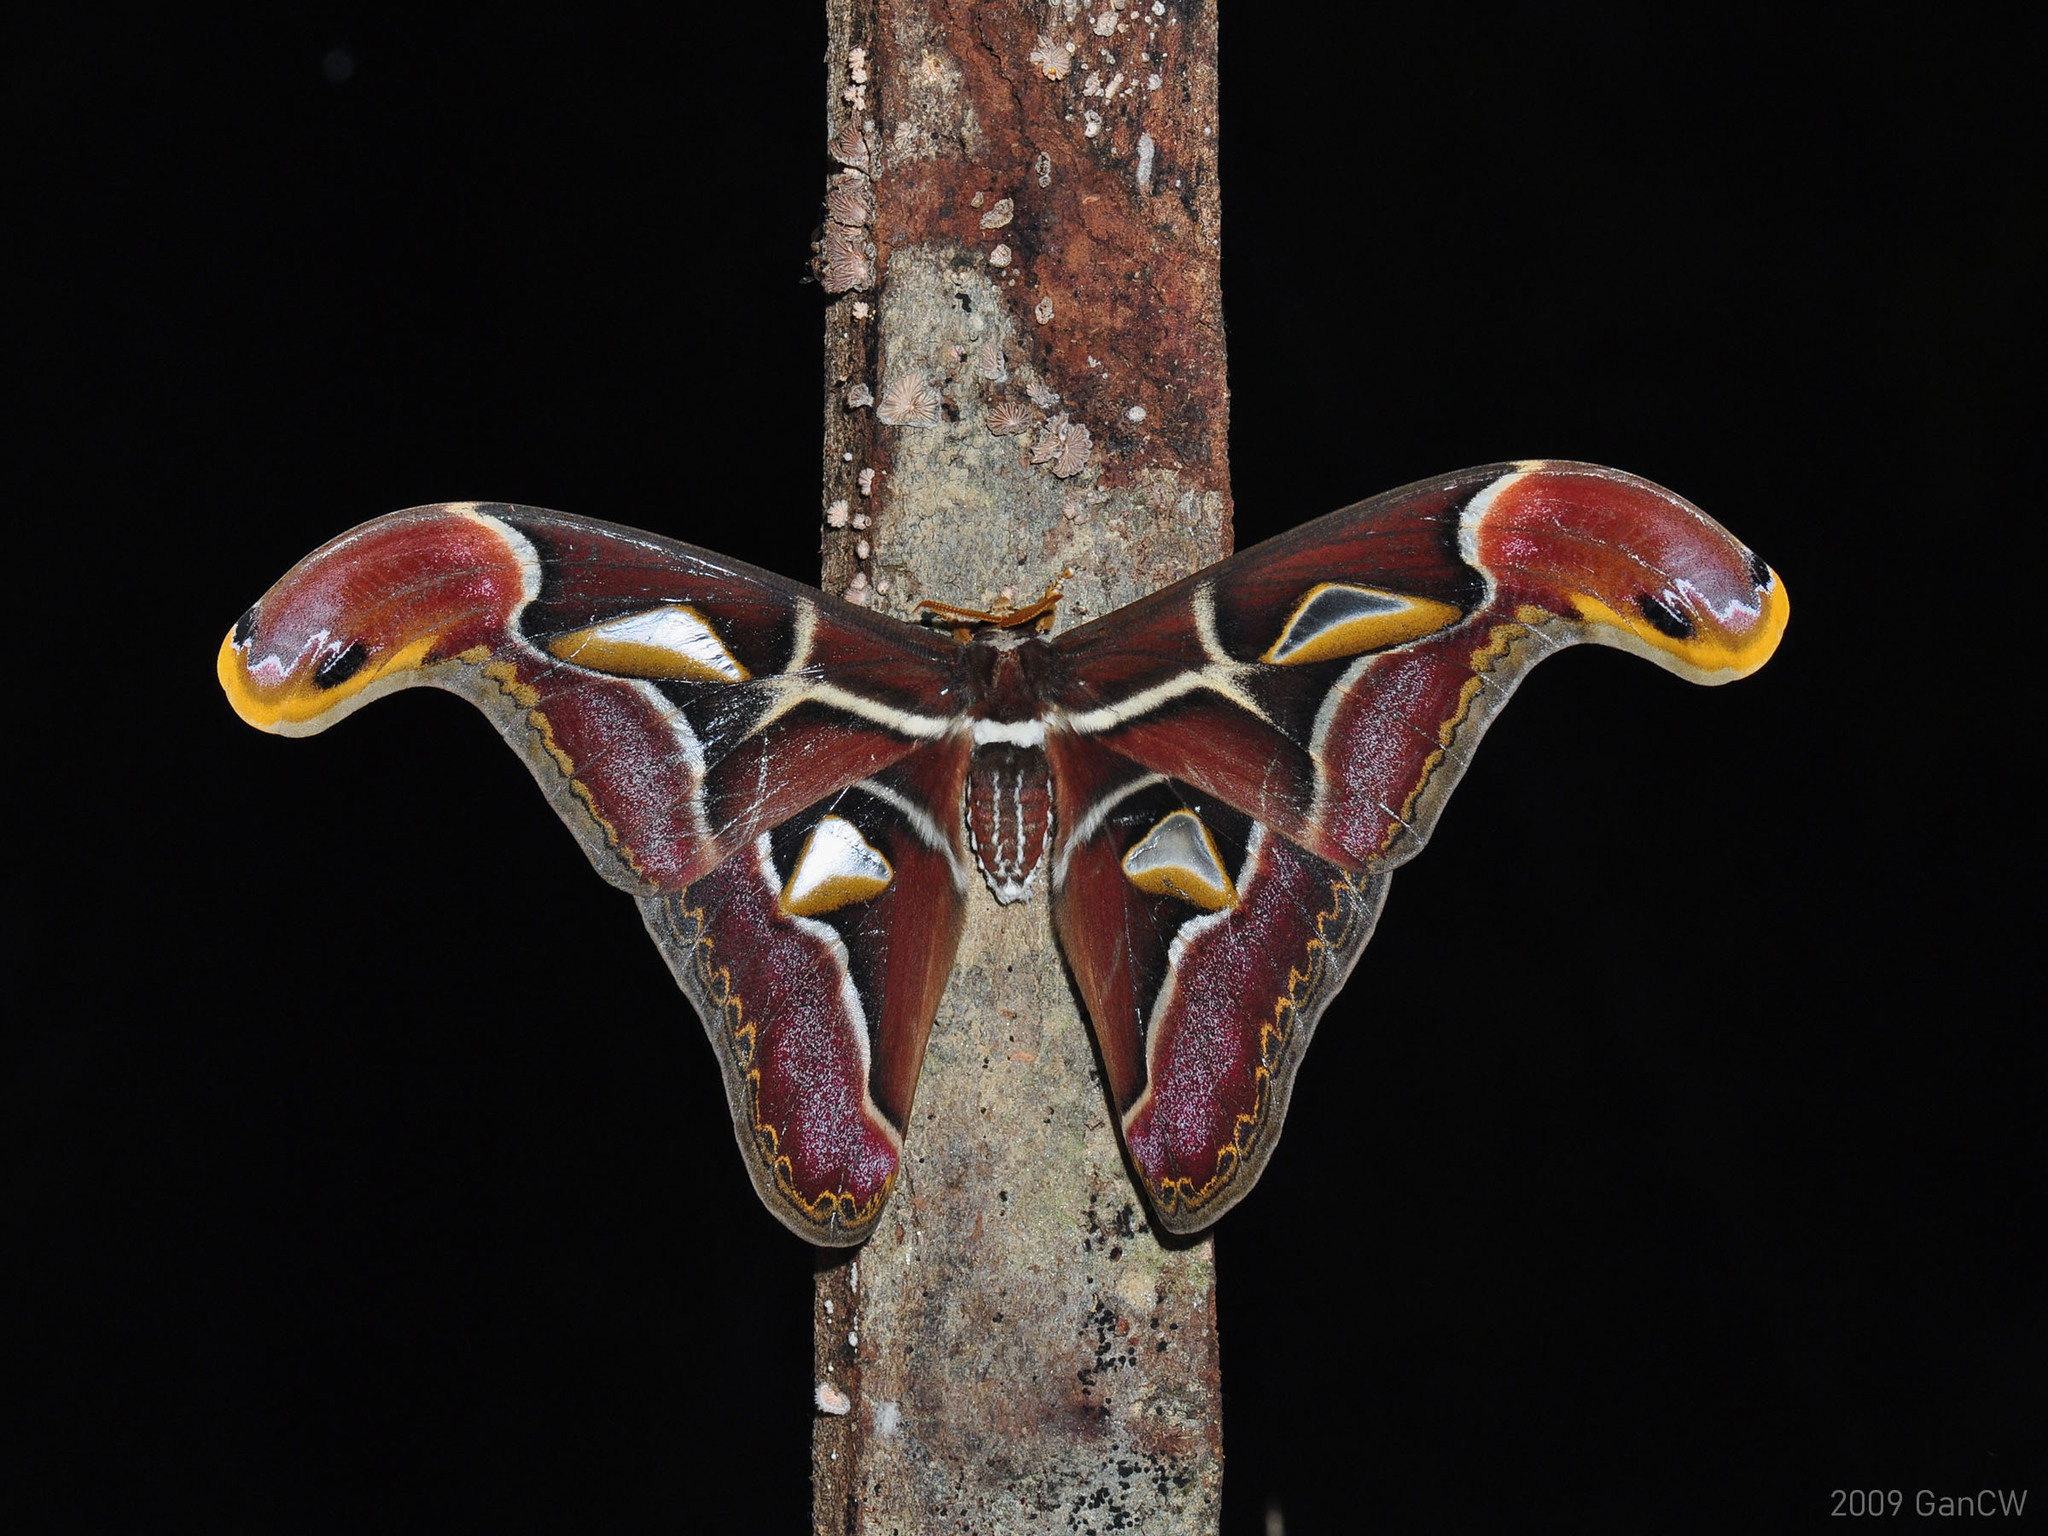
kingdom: Animalia
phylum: Arthropoda
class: Insecta
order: Lepidoptera
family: Saturniidae
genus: Archaeoattacus
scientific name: Archaeoattacus edwardsii
